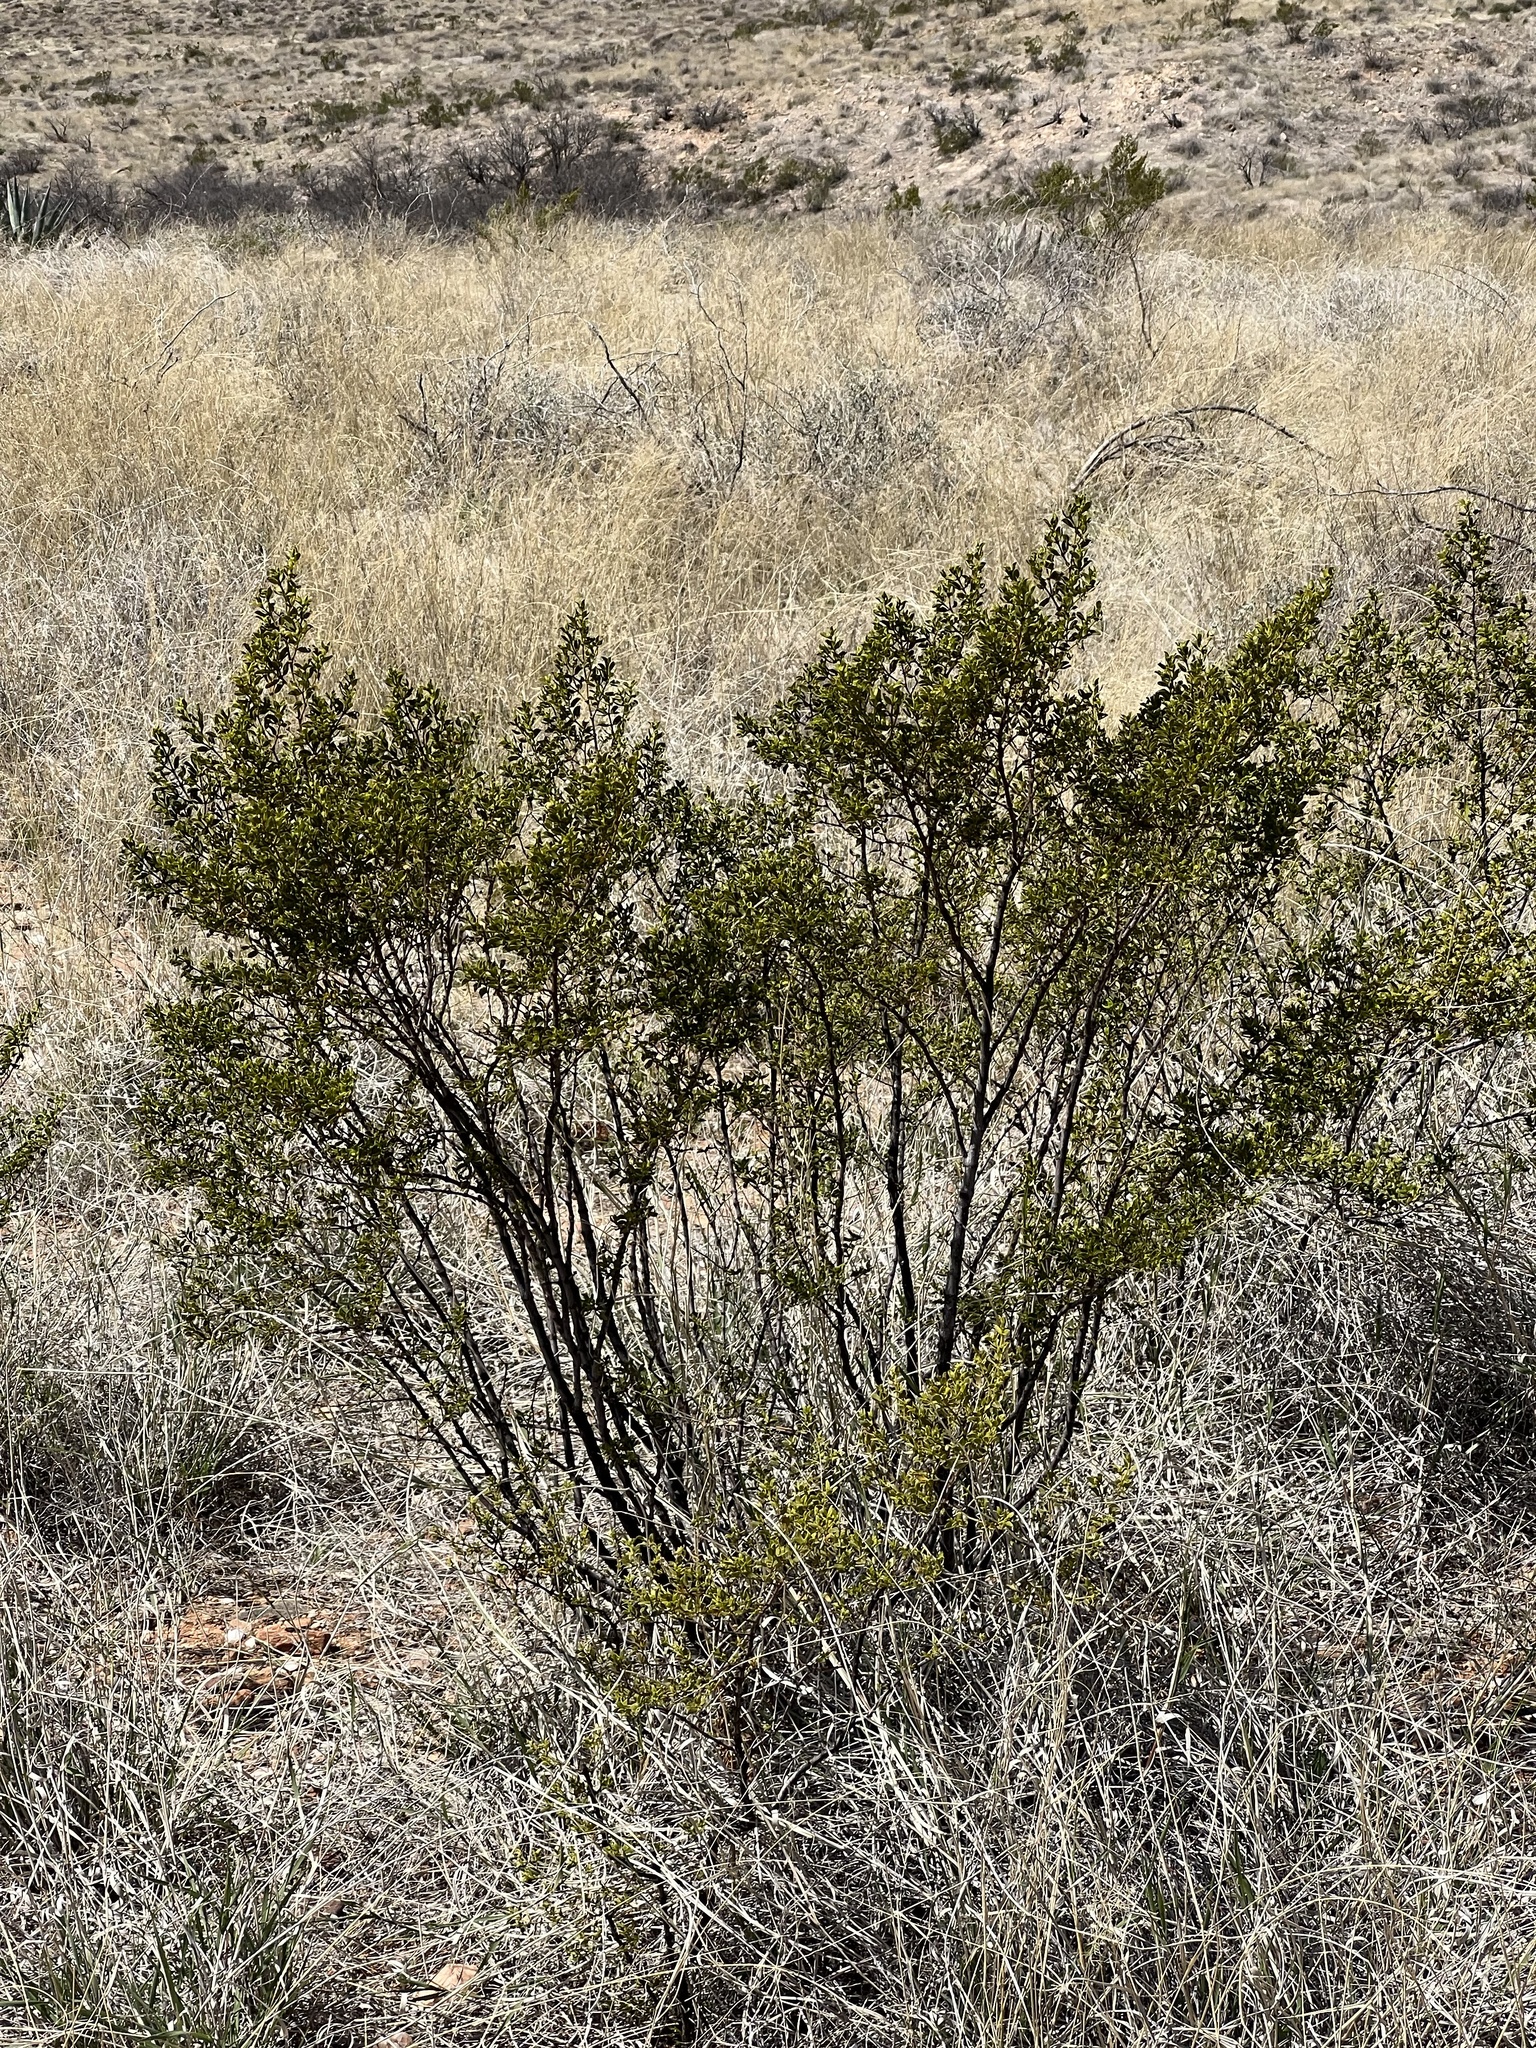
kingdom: Plantae
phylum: Tracheophyta
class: Magnoliopsida
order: Zygophyllales
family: Zygophyllaceae
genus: Larrea
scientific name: Larrea tridentata
